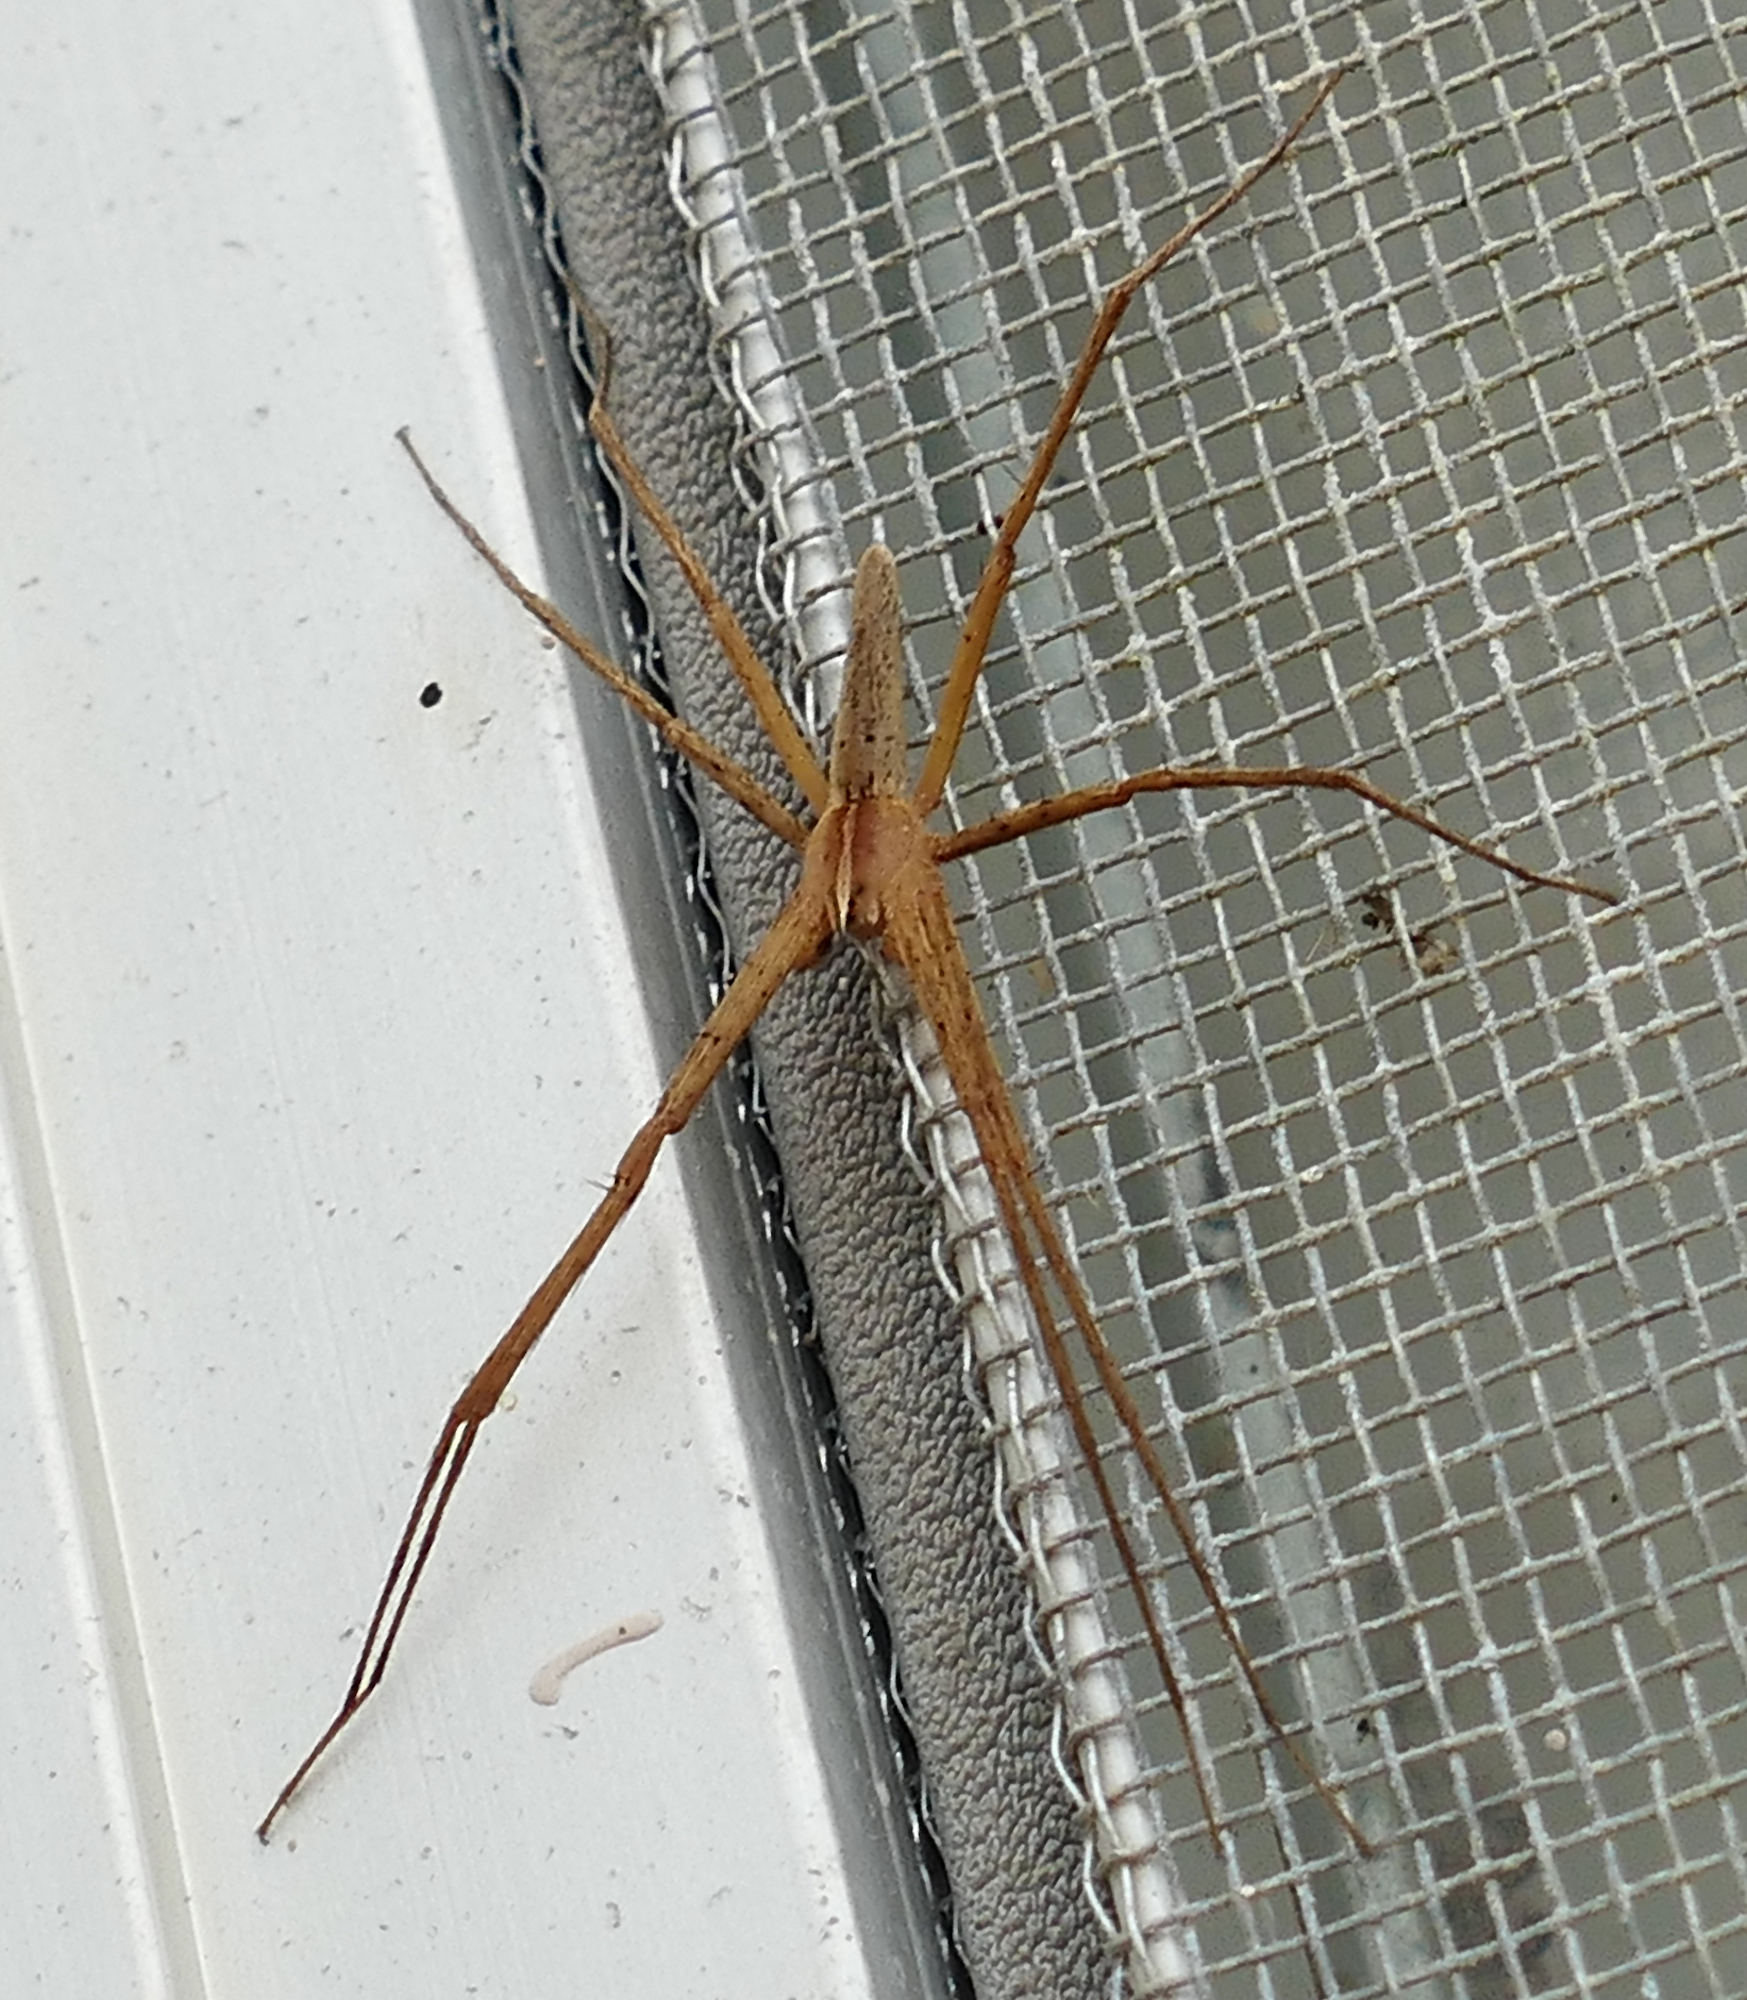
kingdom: Animalia
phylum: Arthropoda
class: Arachnida
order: Araneae
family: Pisauridae
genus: Pisaurina
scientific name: Pisaurina dubia
